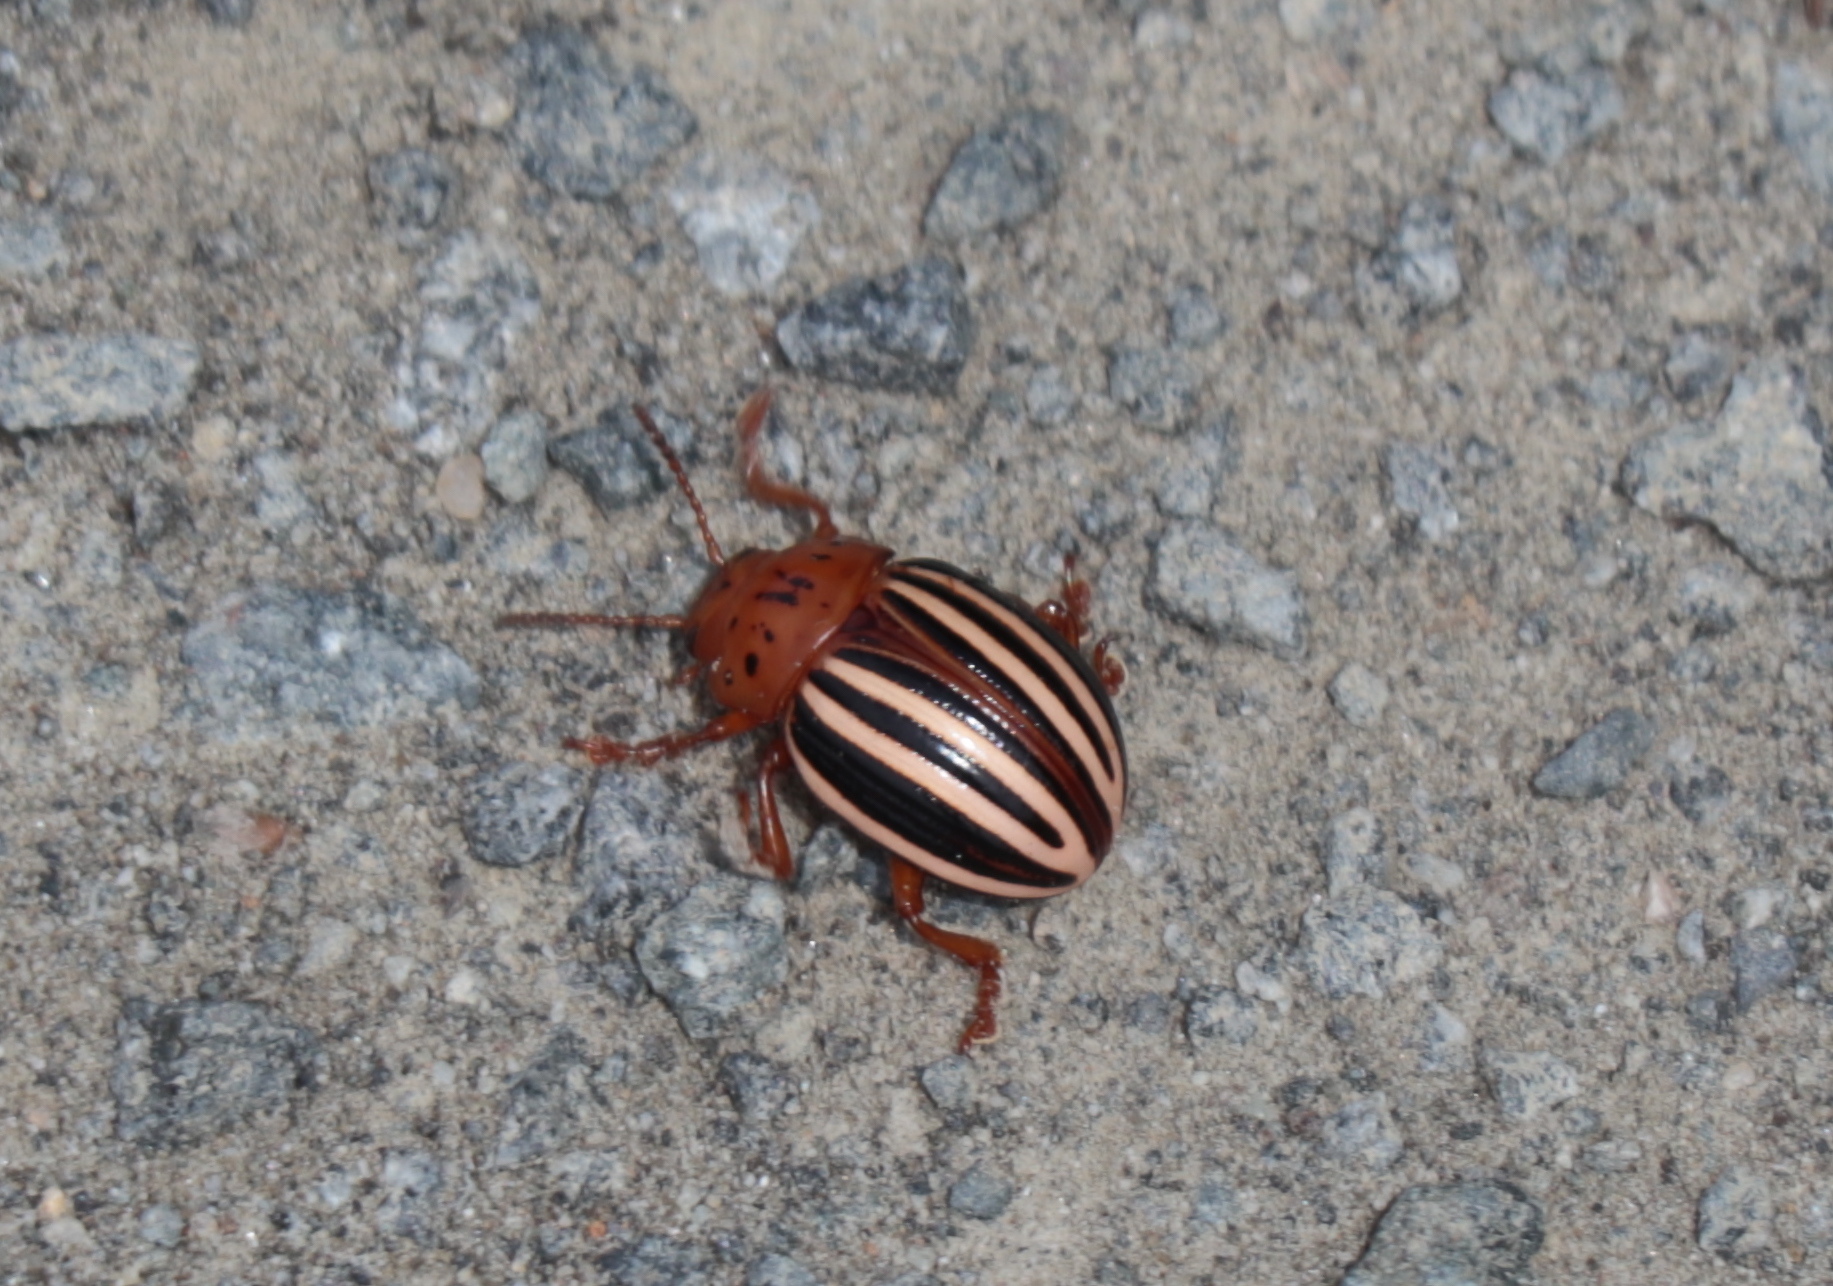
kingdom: Animalia
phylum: Arthropoda
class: Insecta
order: Coleoptera
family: Chrysomelidae
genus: Leptinotarsa
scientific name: Leptinotarsa juncta
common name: False potato beetle
